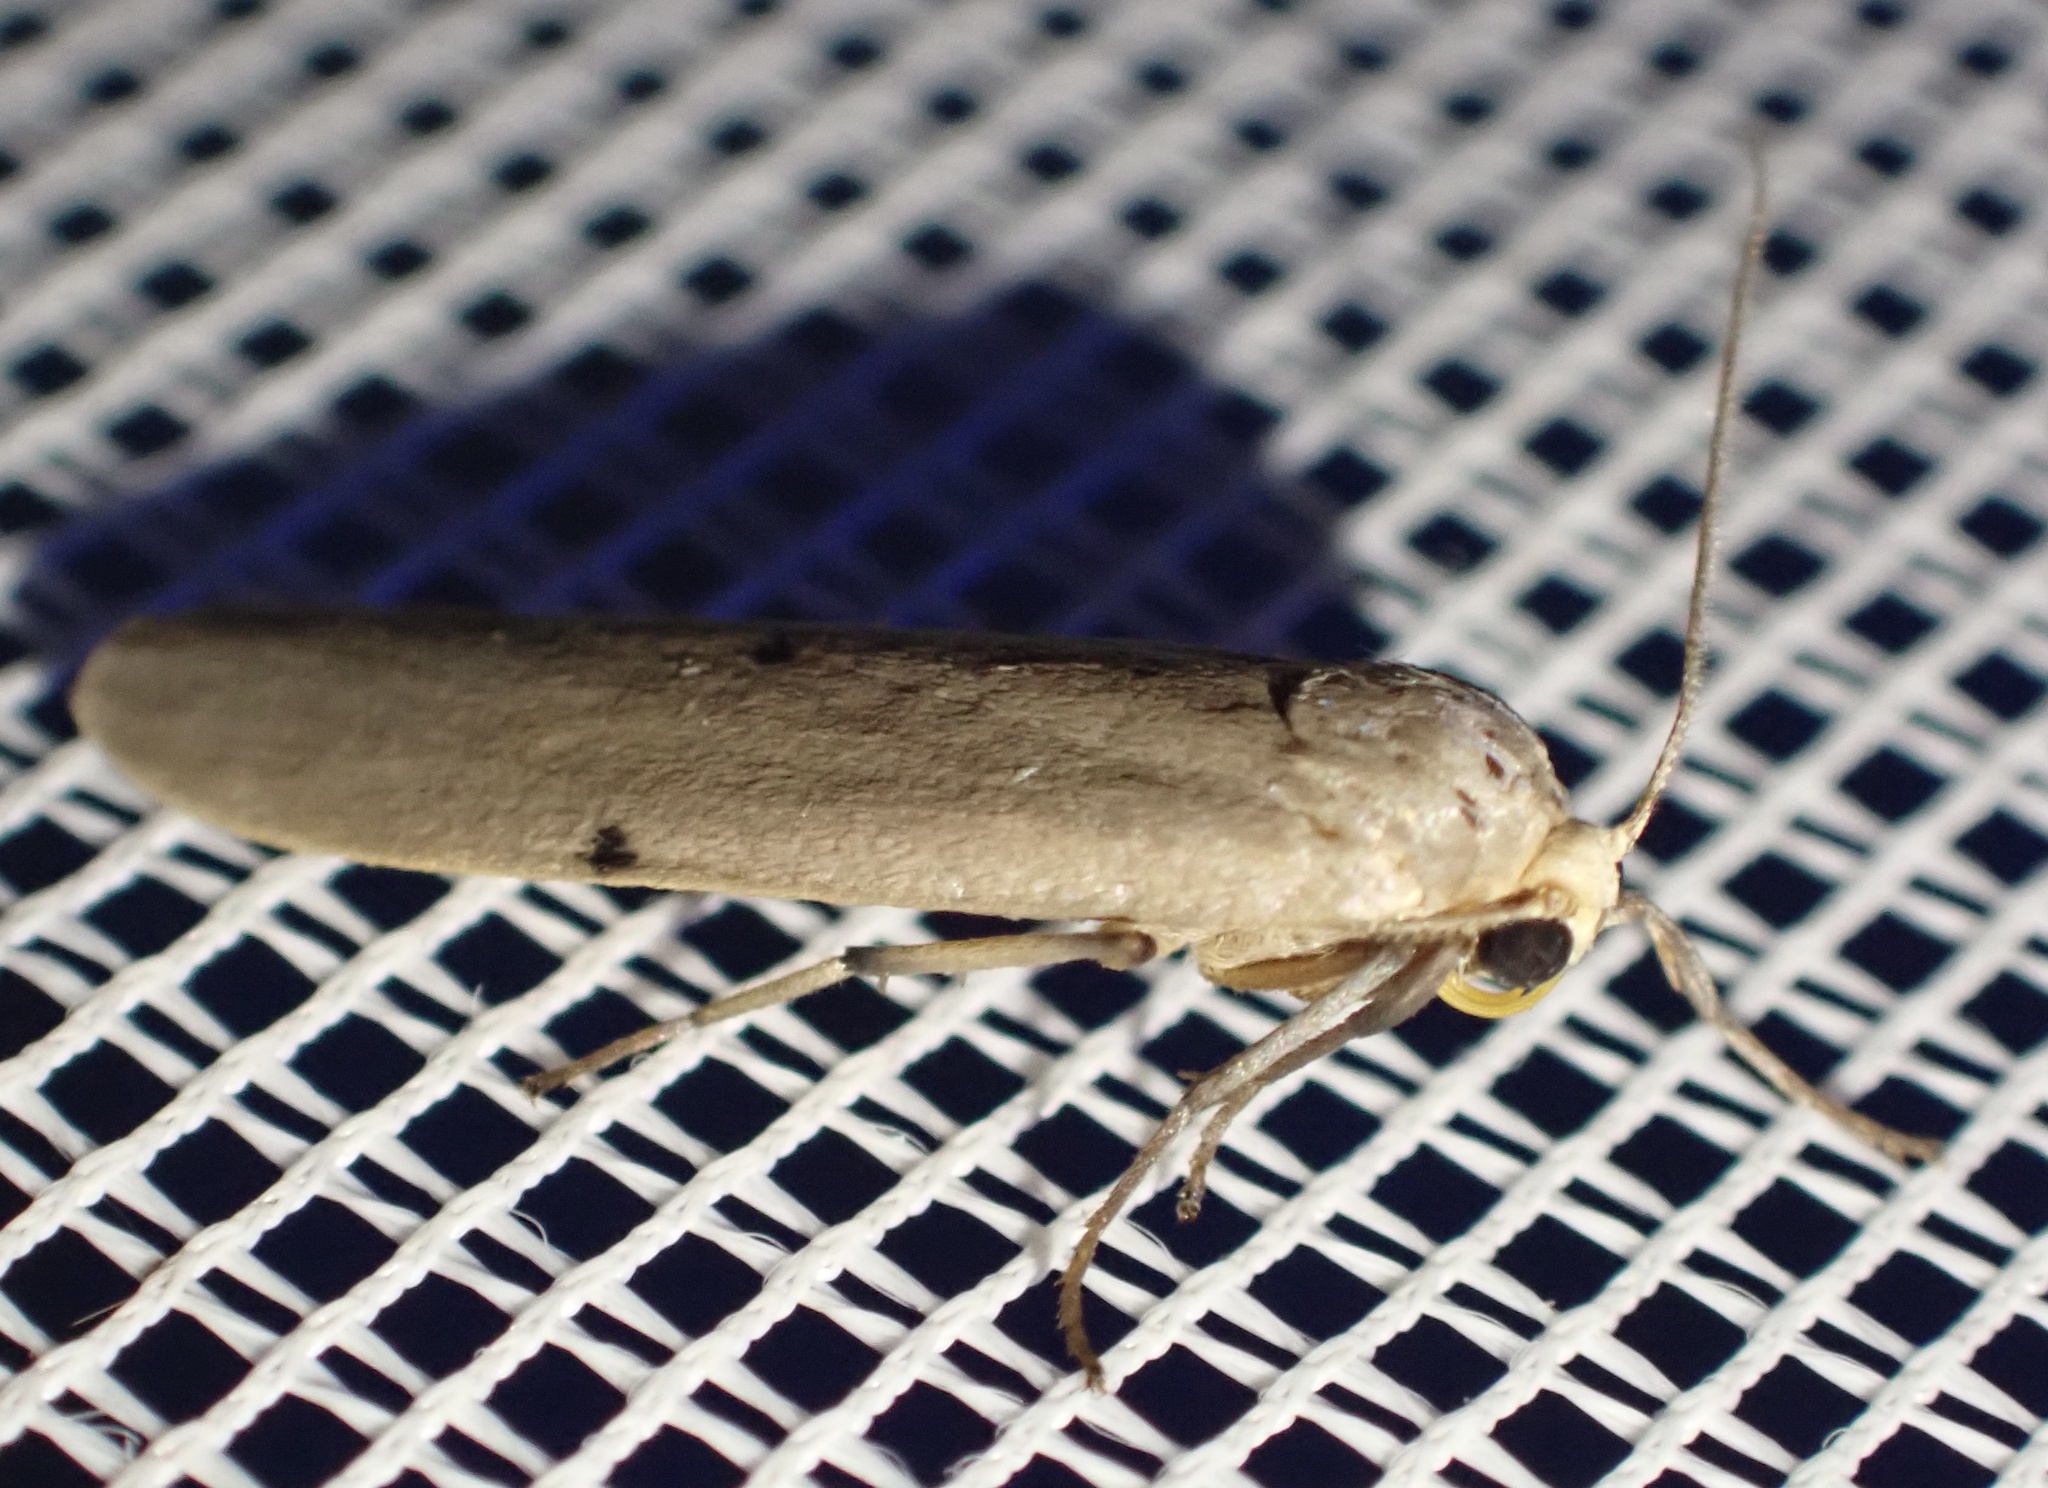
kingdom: Animalia
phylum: Arthropoda
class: Insecta
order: Lepidoptera
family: Erebidae
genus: Zobida
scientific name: Zobida bipuncta
